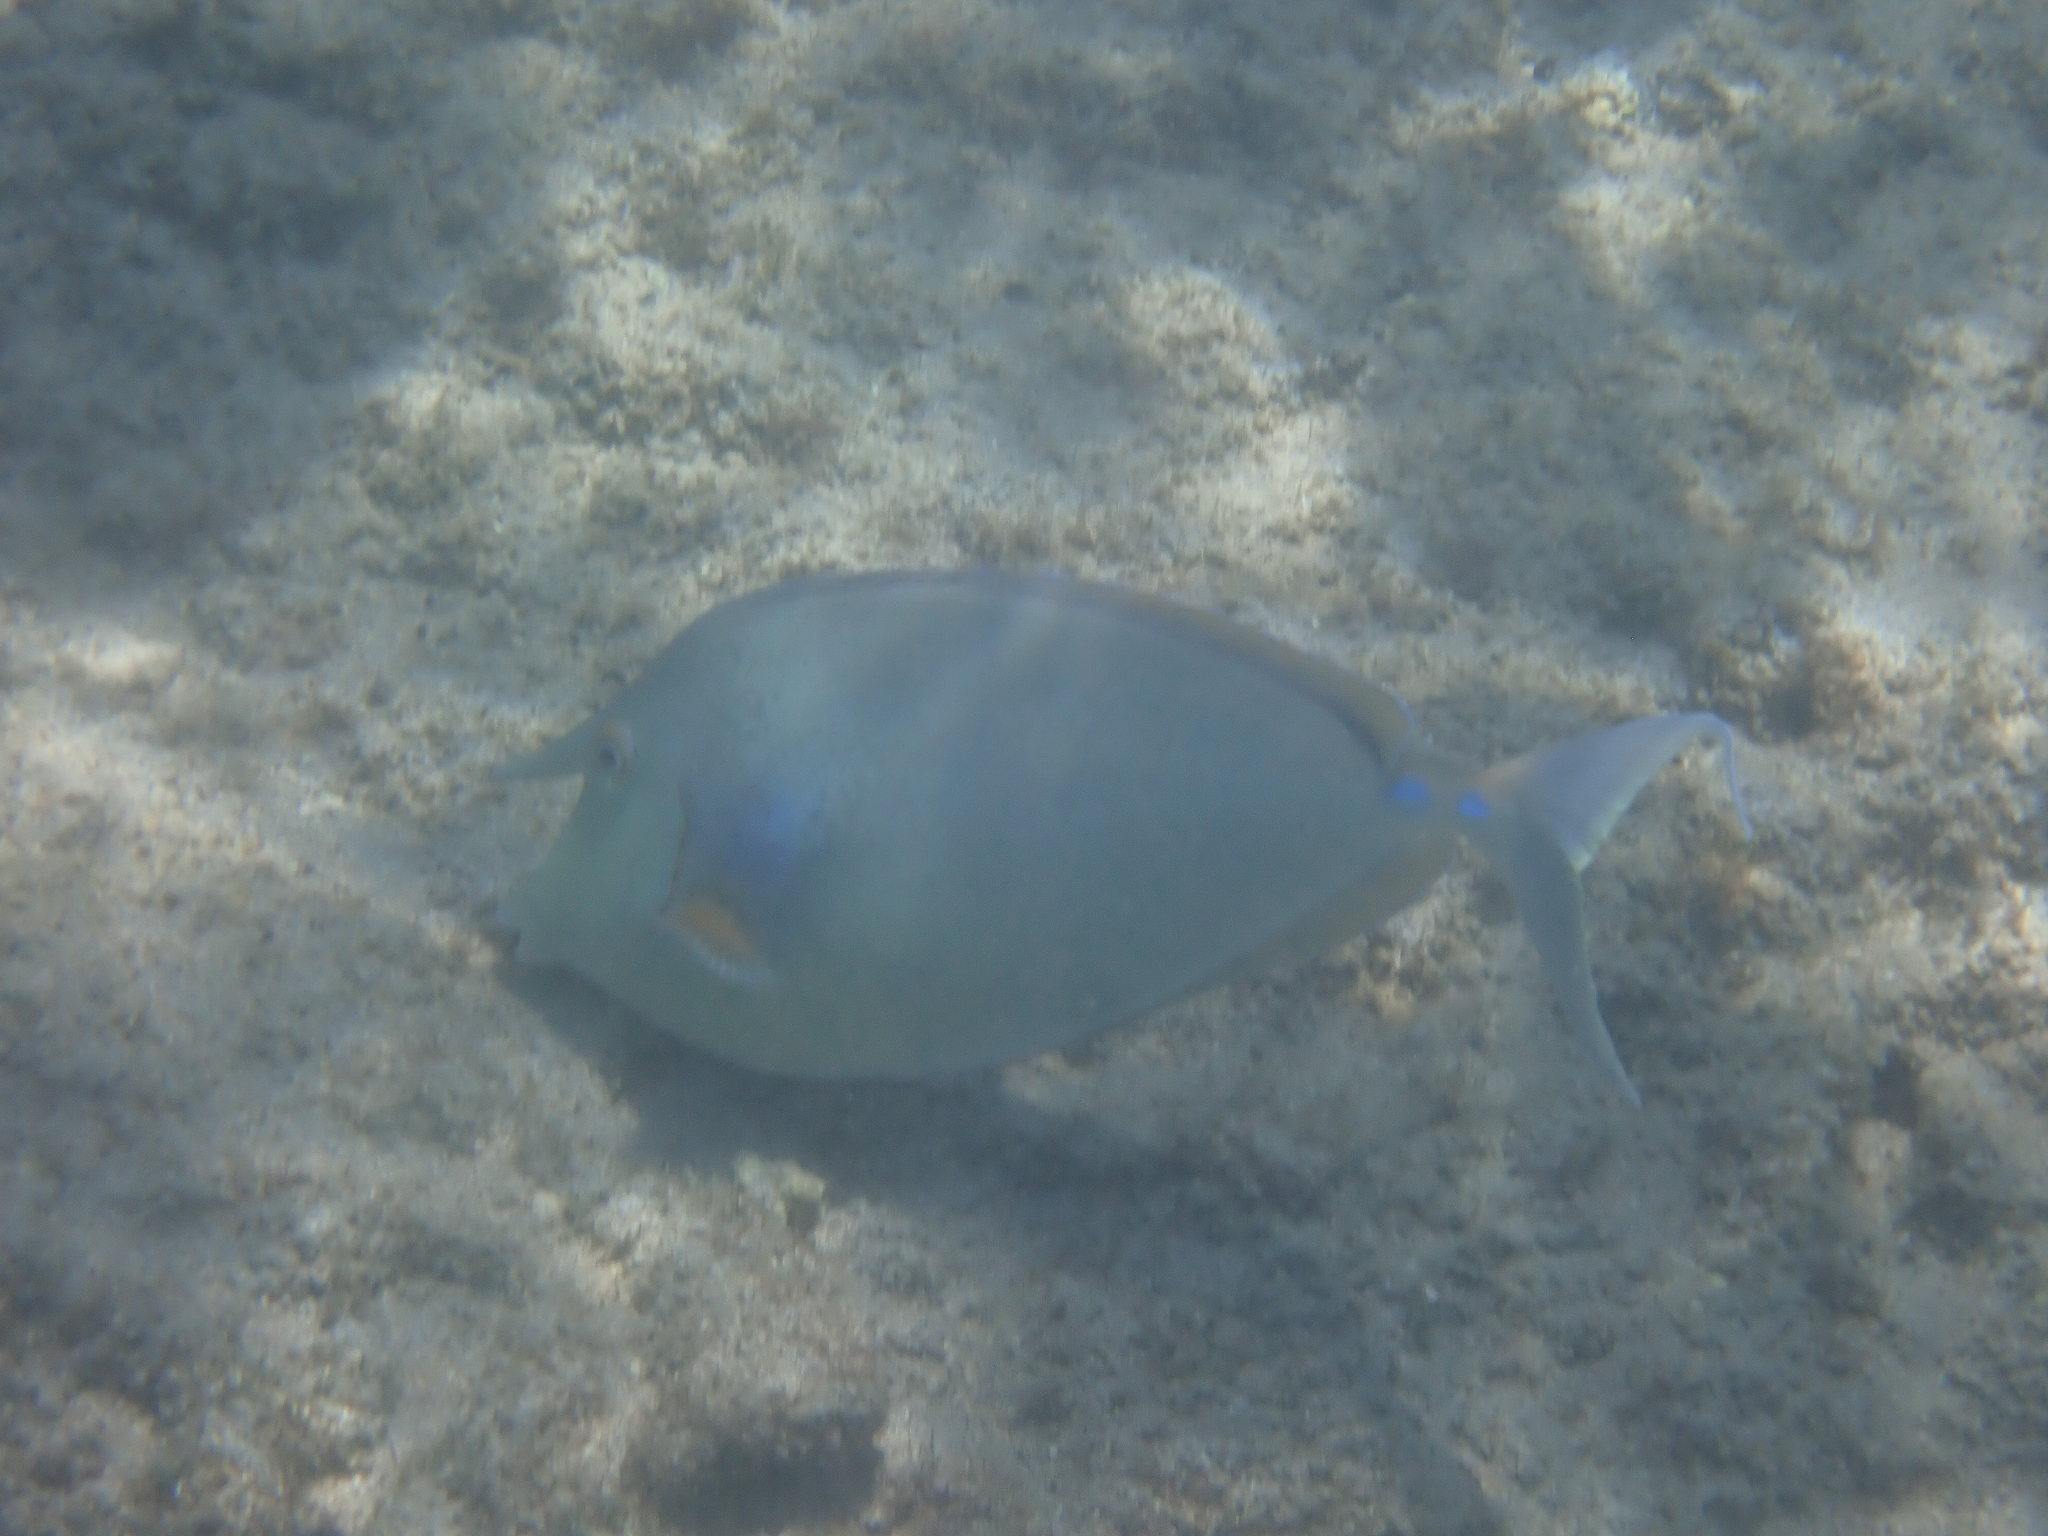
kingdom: Animalia
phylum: Chordata
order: Perciformes
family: Acanthuridae
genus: Naso
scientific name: Naso unicornis
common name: Bluespine unicornfish
